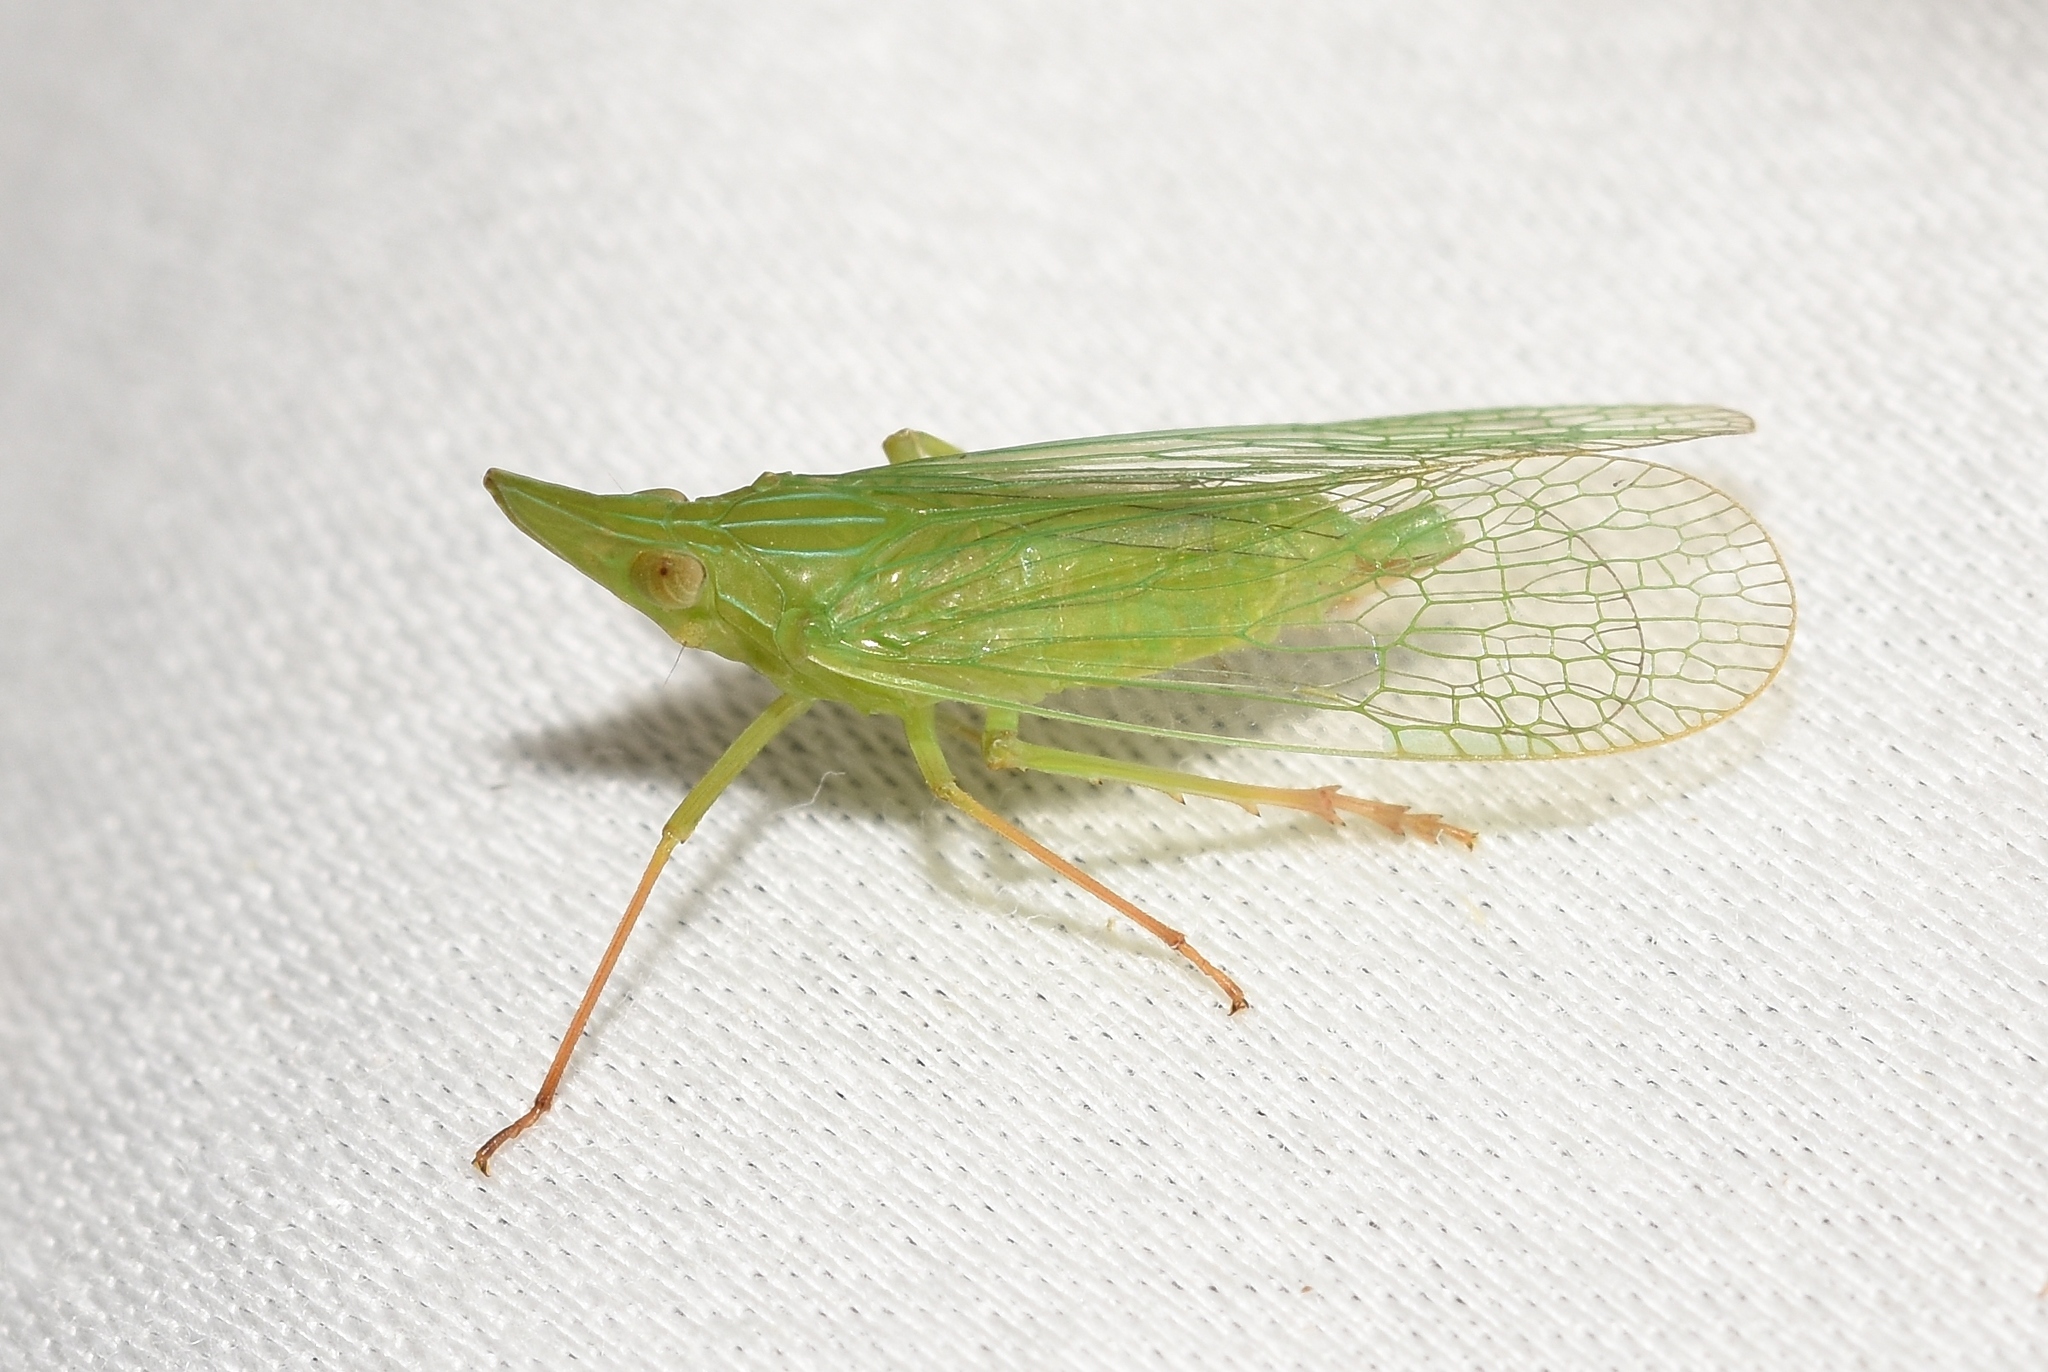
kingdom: Animalia
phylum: Arthropoda
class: Insecta
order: Hemiptera
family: Dictyopharidae
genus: Rhynchomitra
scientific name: Rhynchomitra microrhina
